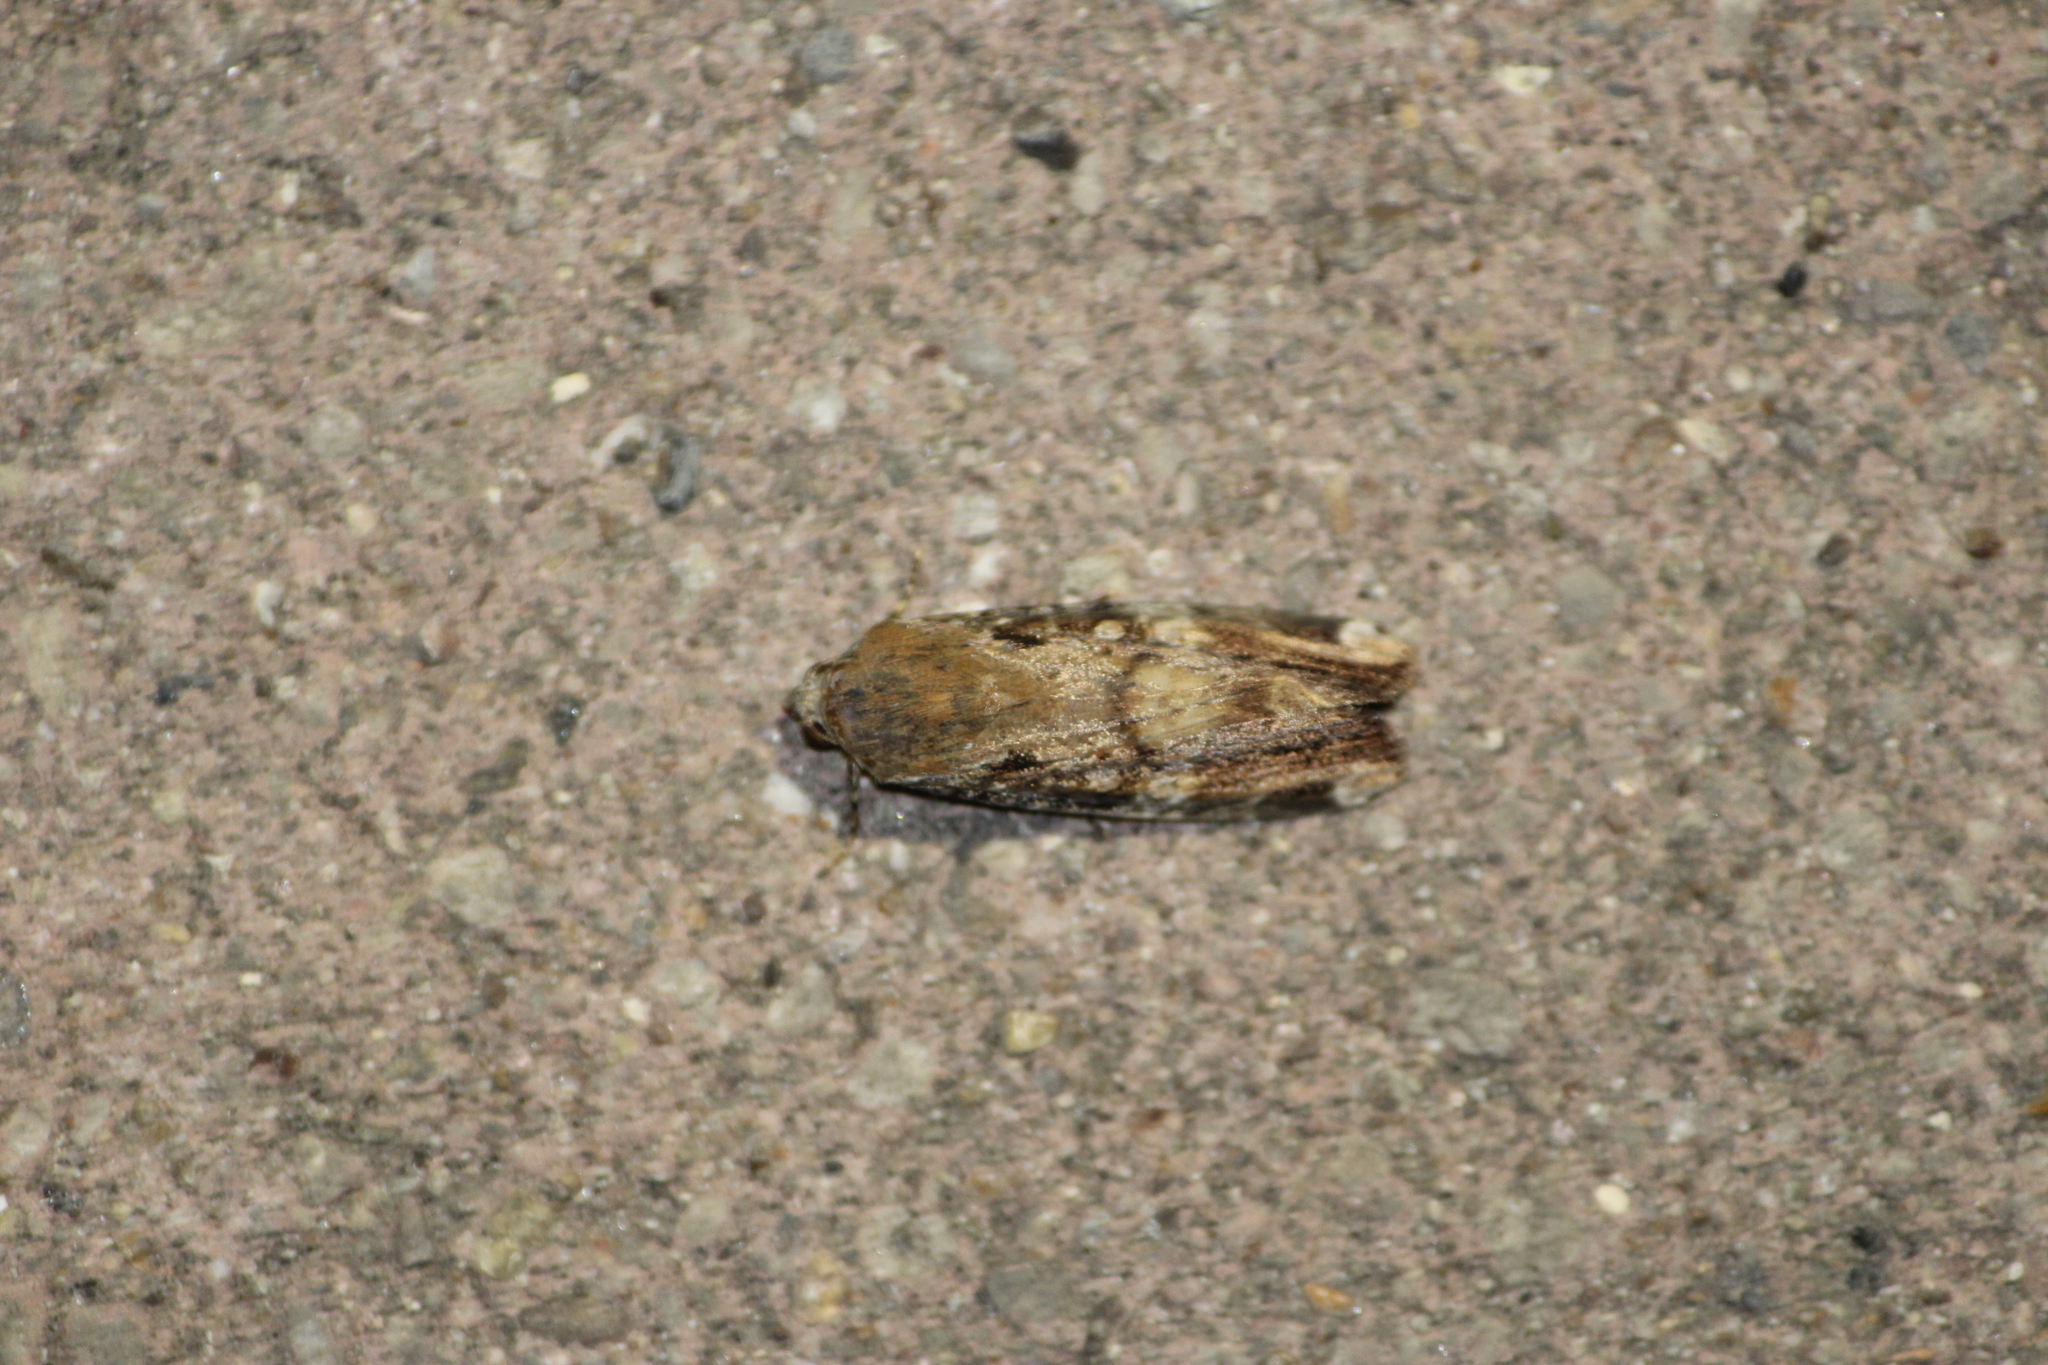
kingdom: Animalia
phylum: Arthropoda
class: Insecta
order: Lepidoptera
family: Noctuidae
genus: Magusa
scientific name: Magusa divaricata
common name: Orb narrow-winged moth
